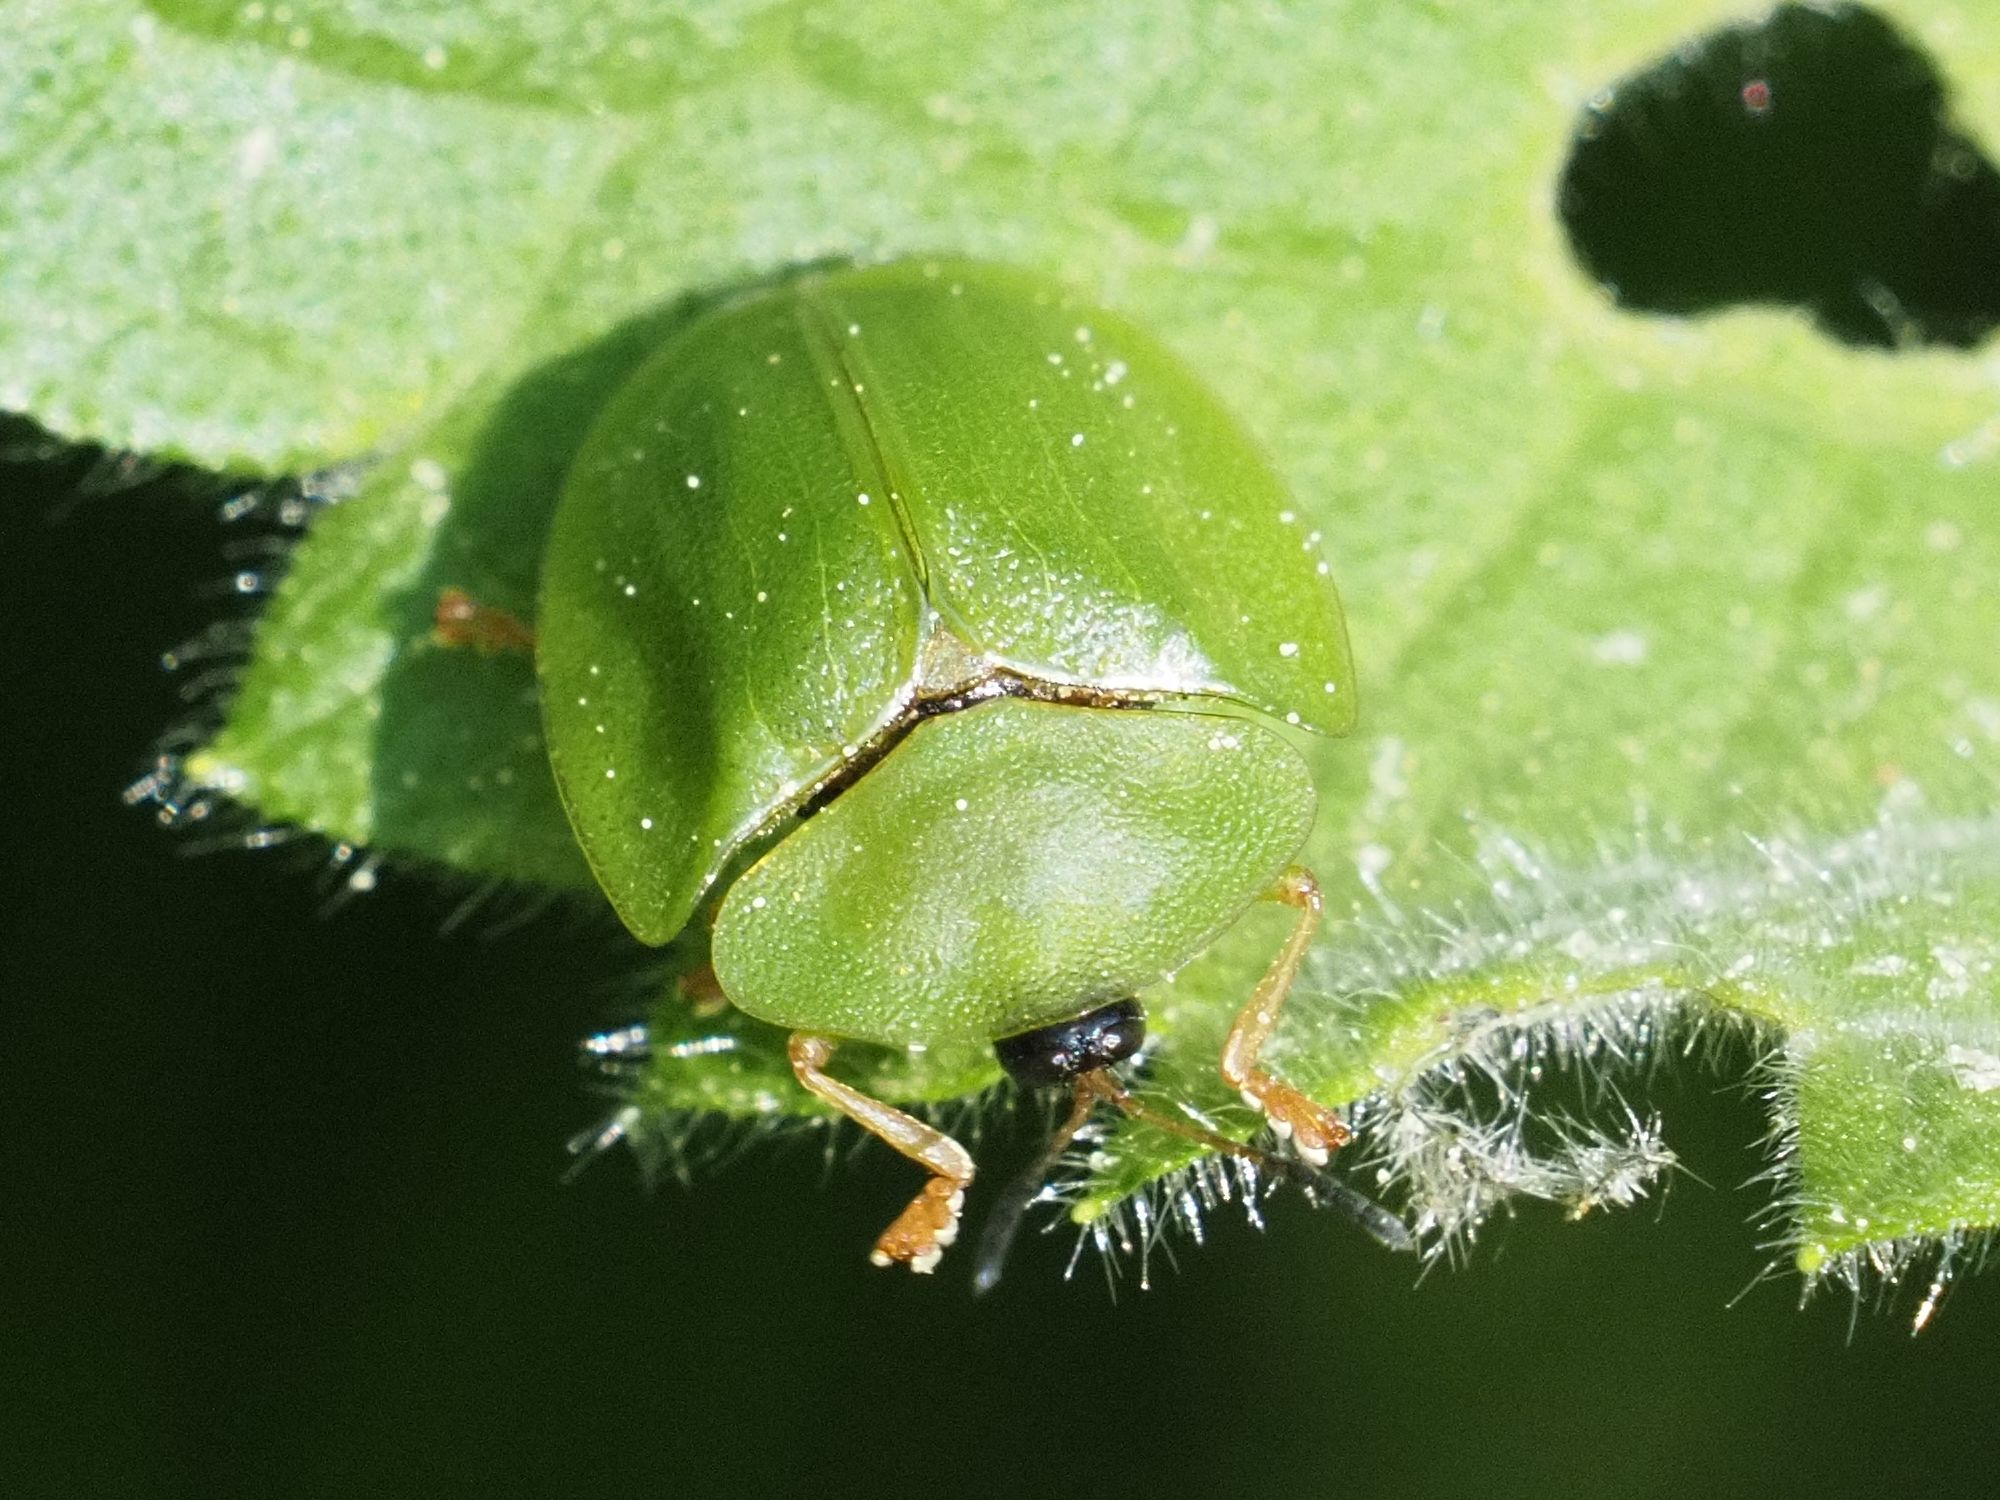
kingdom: Animalia
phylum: Arthropoda
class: Insecta
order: Coleoptera
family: Chrysomelidae
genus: Cassida
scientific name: Cassida viridis
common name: Green tortoise beetle
